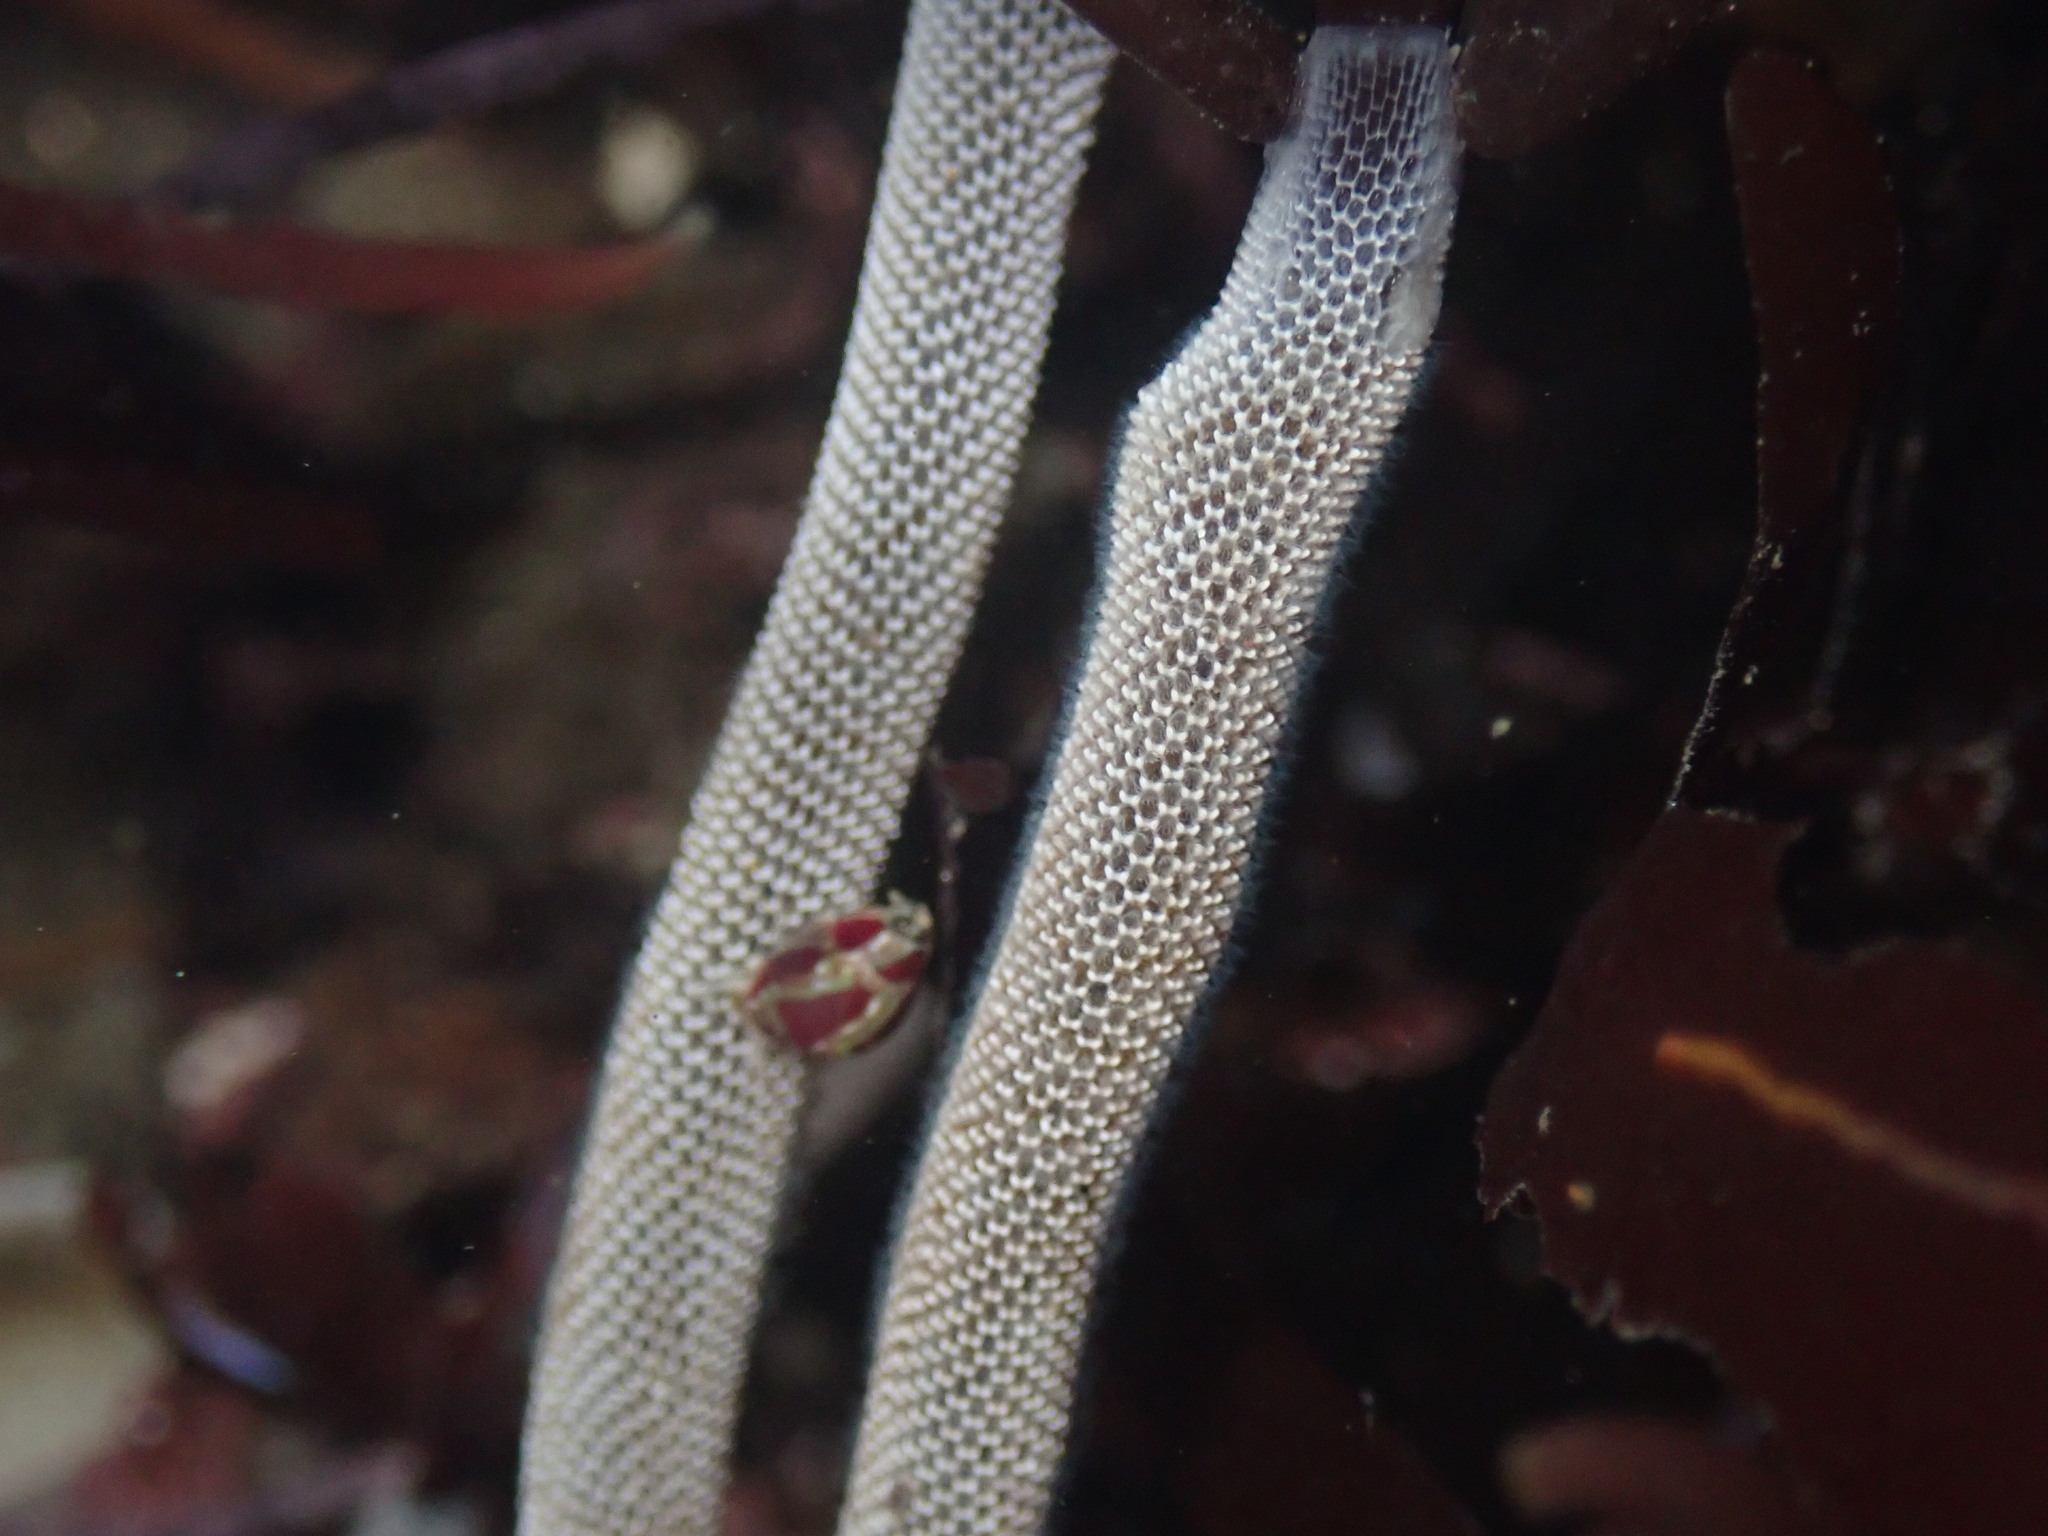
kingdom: Animalia
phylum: Bryozoa
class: Gymnolaemata
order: Cheilostomatida
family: Membraniporidae
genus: Jellyella
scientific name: Jellyella tuberculata
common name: Sargassum bryozoan
